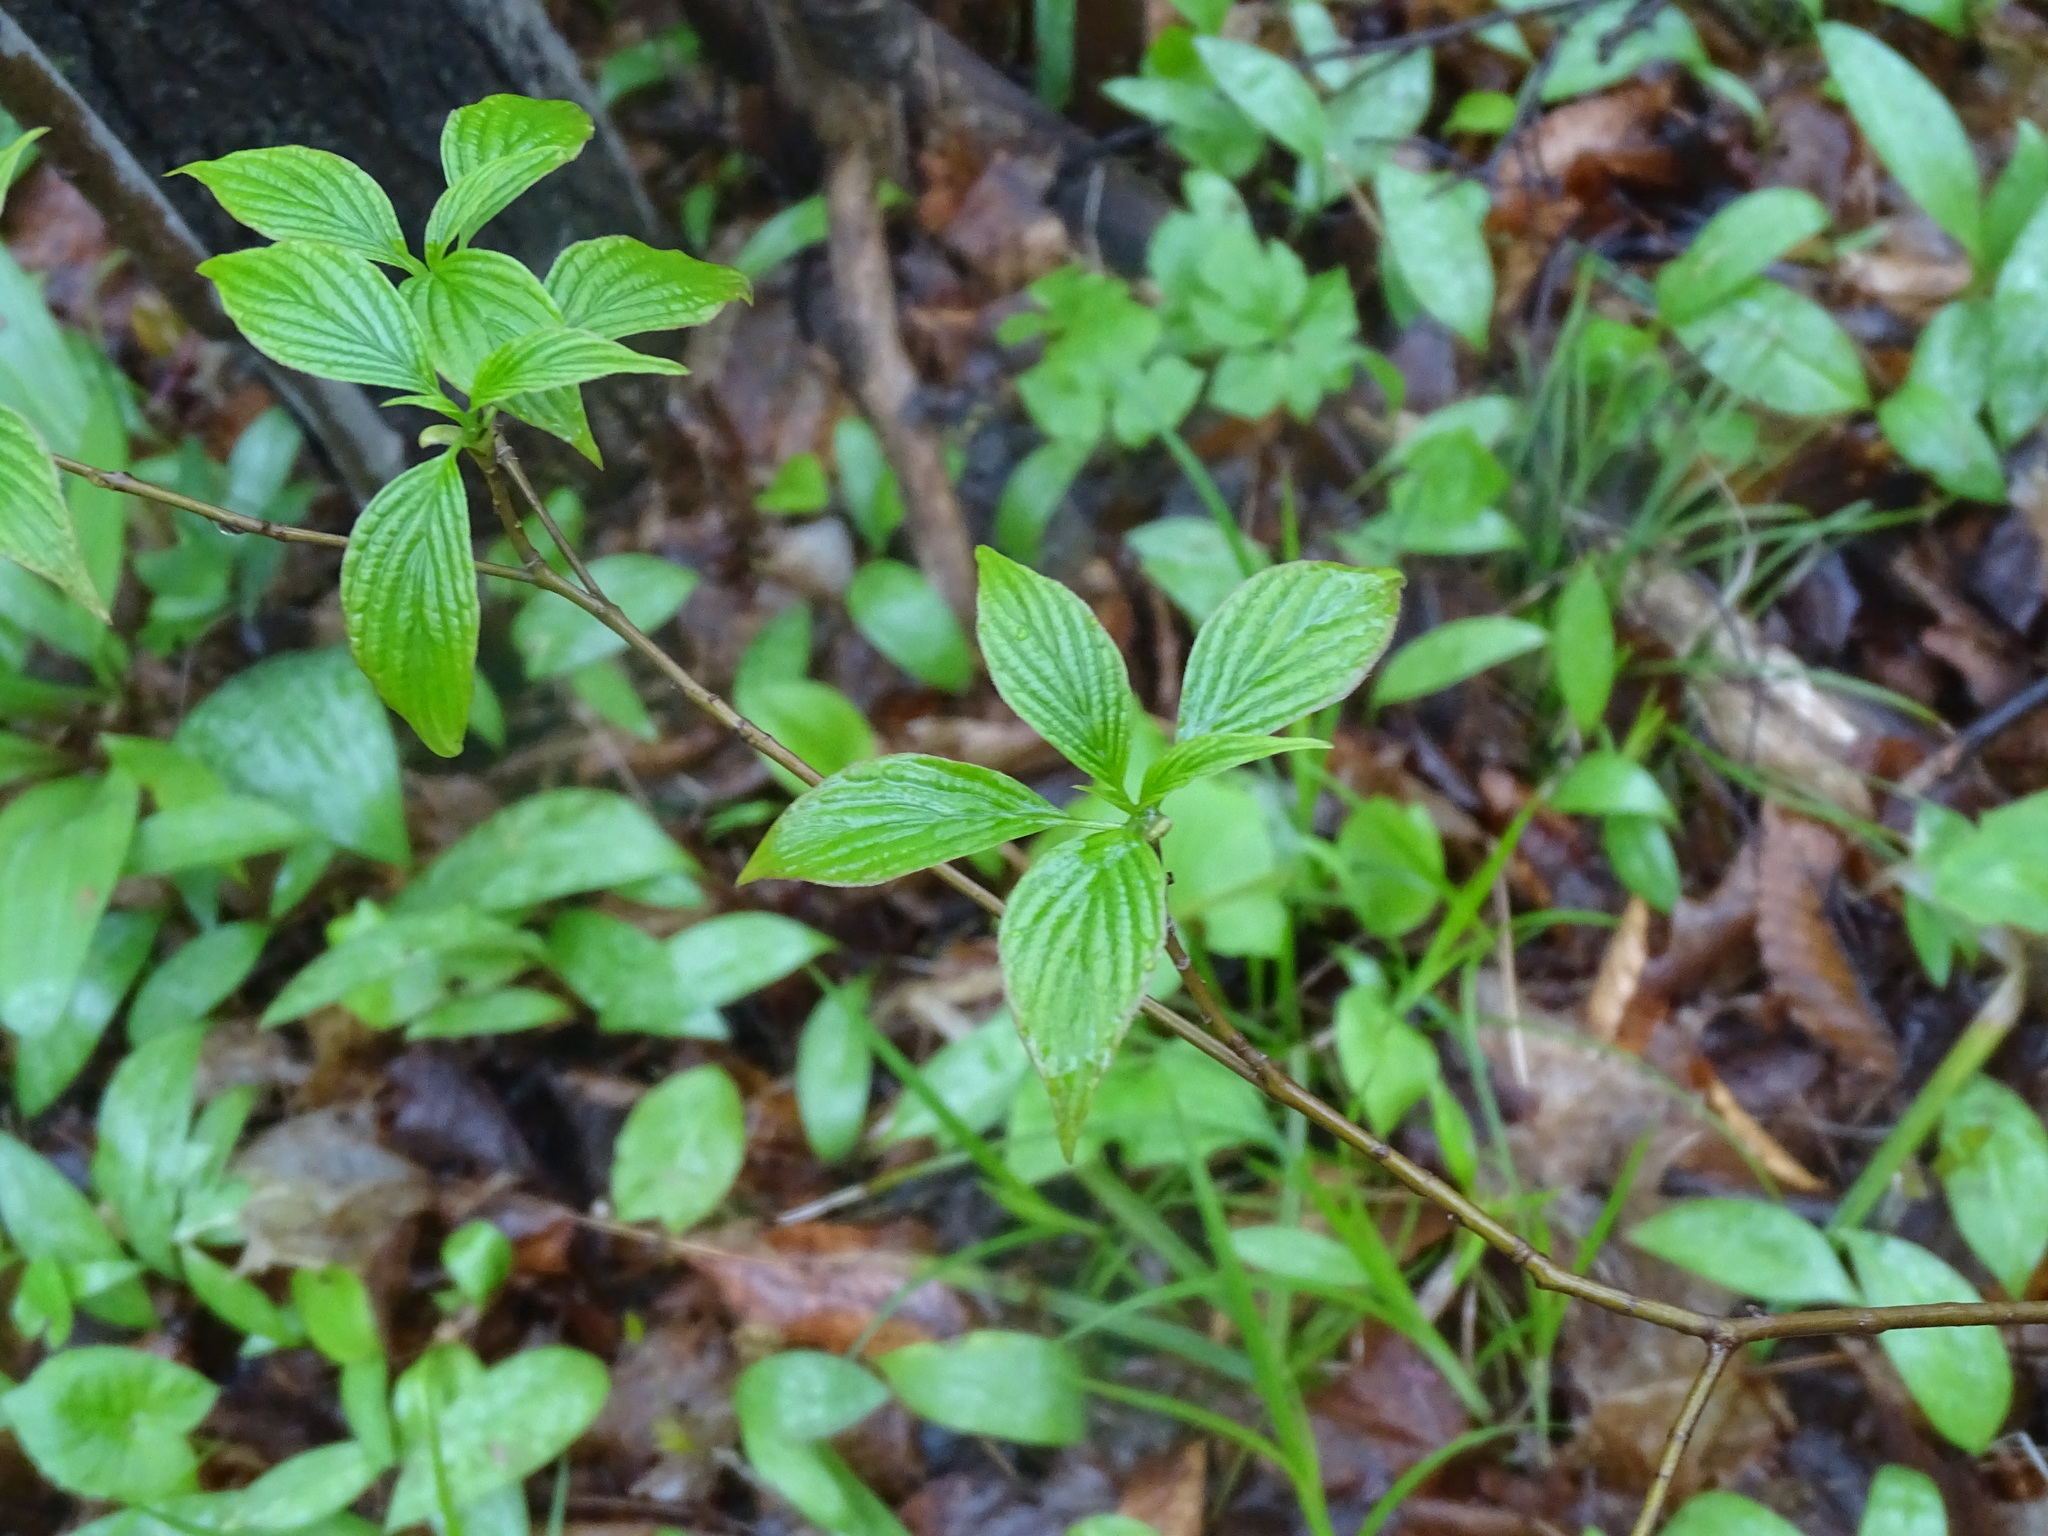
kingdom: Plantae
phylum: Tracheophyta
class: Magnoliopsida
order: Cornales
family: Cornaceae
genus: Cornus
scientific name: Cornus alternifolia
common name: Pagoda dogwood
